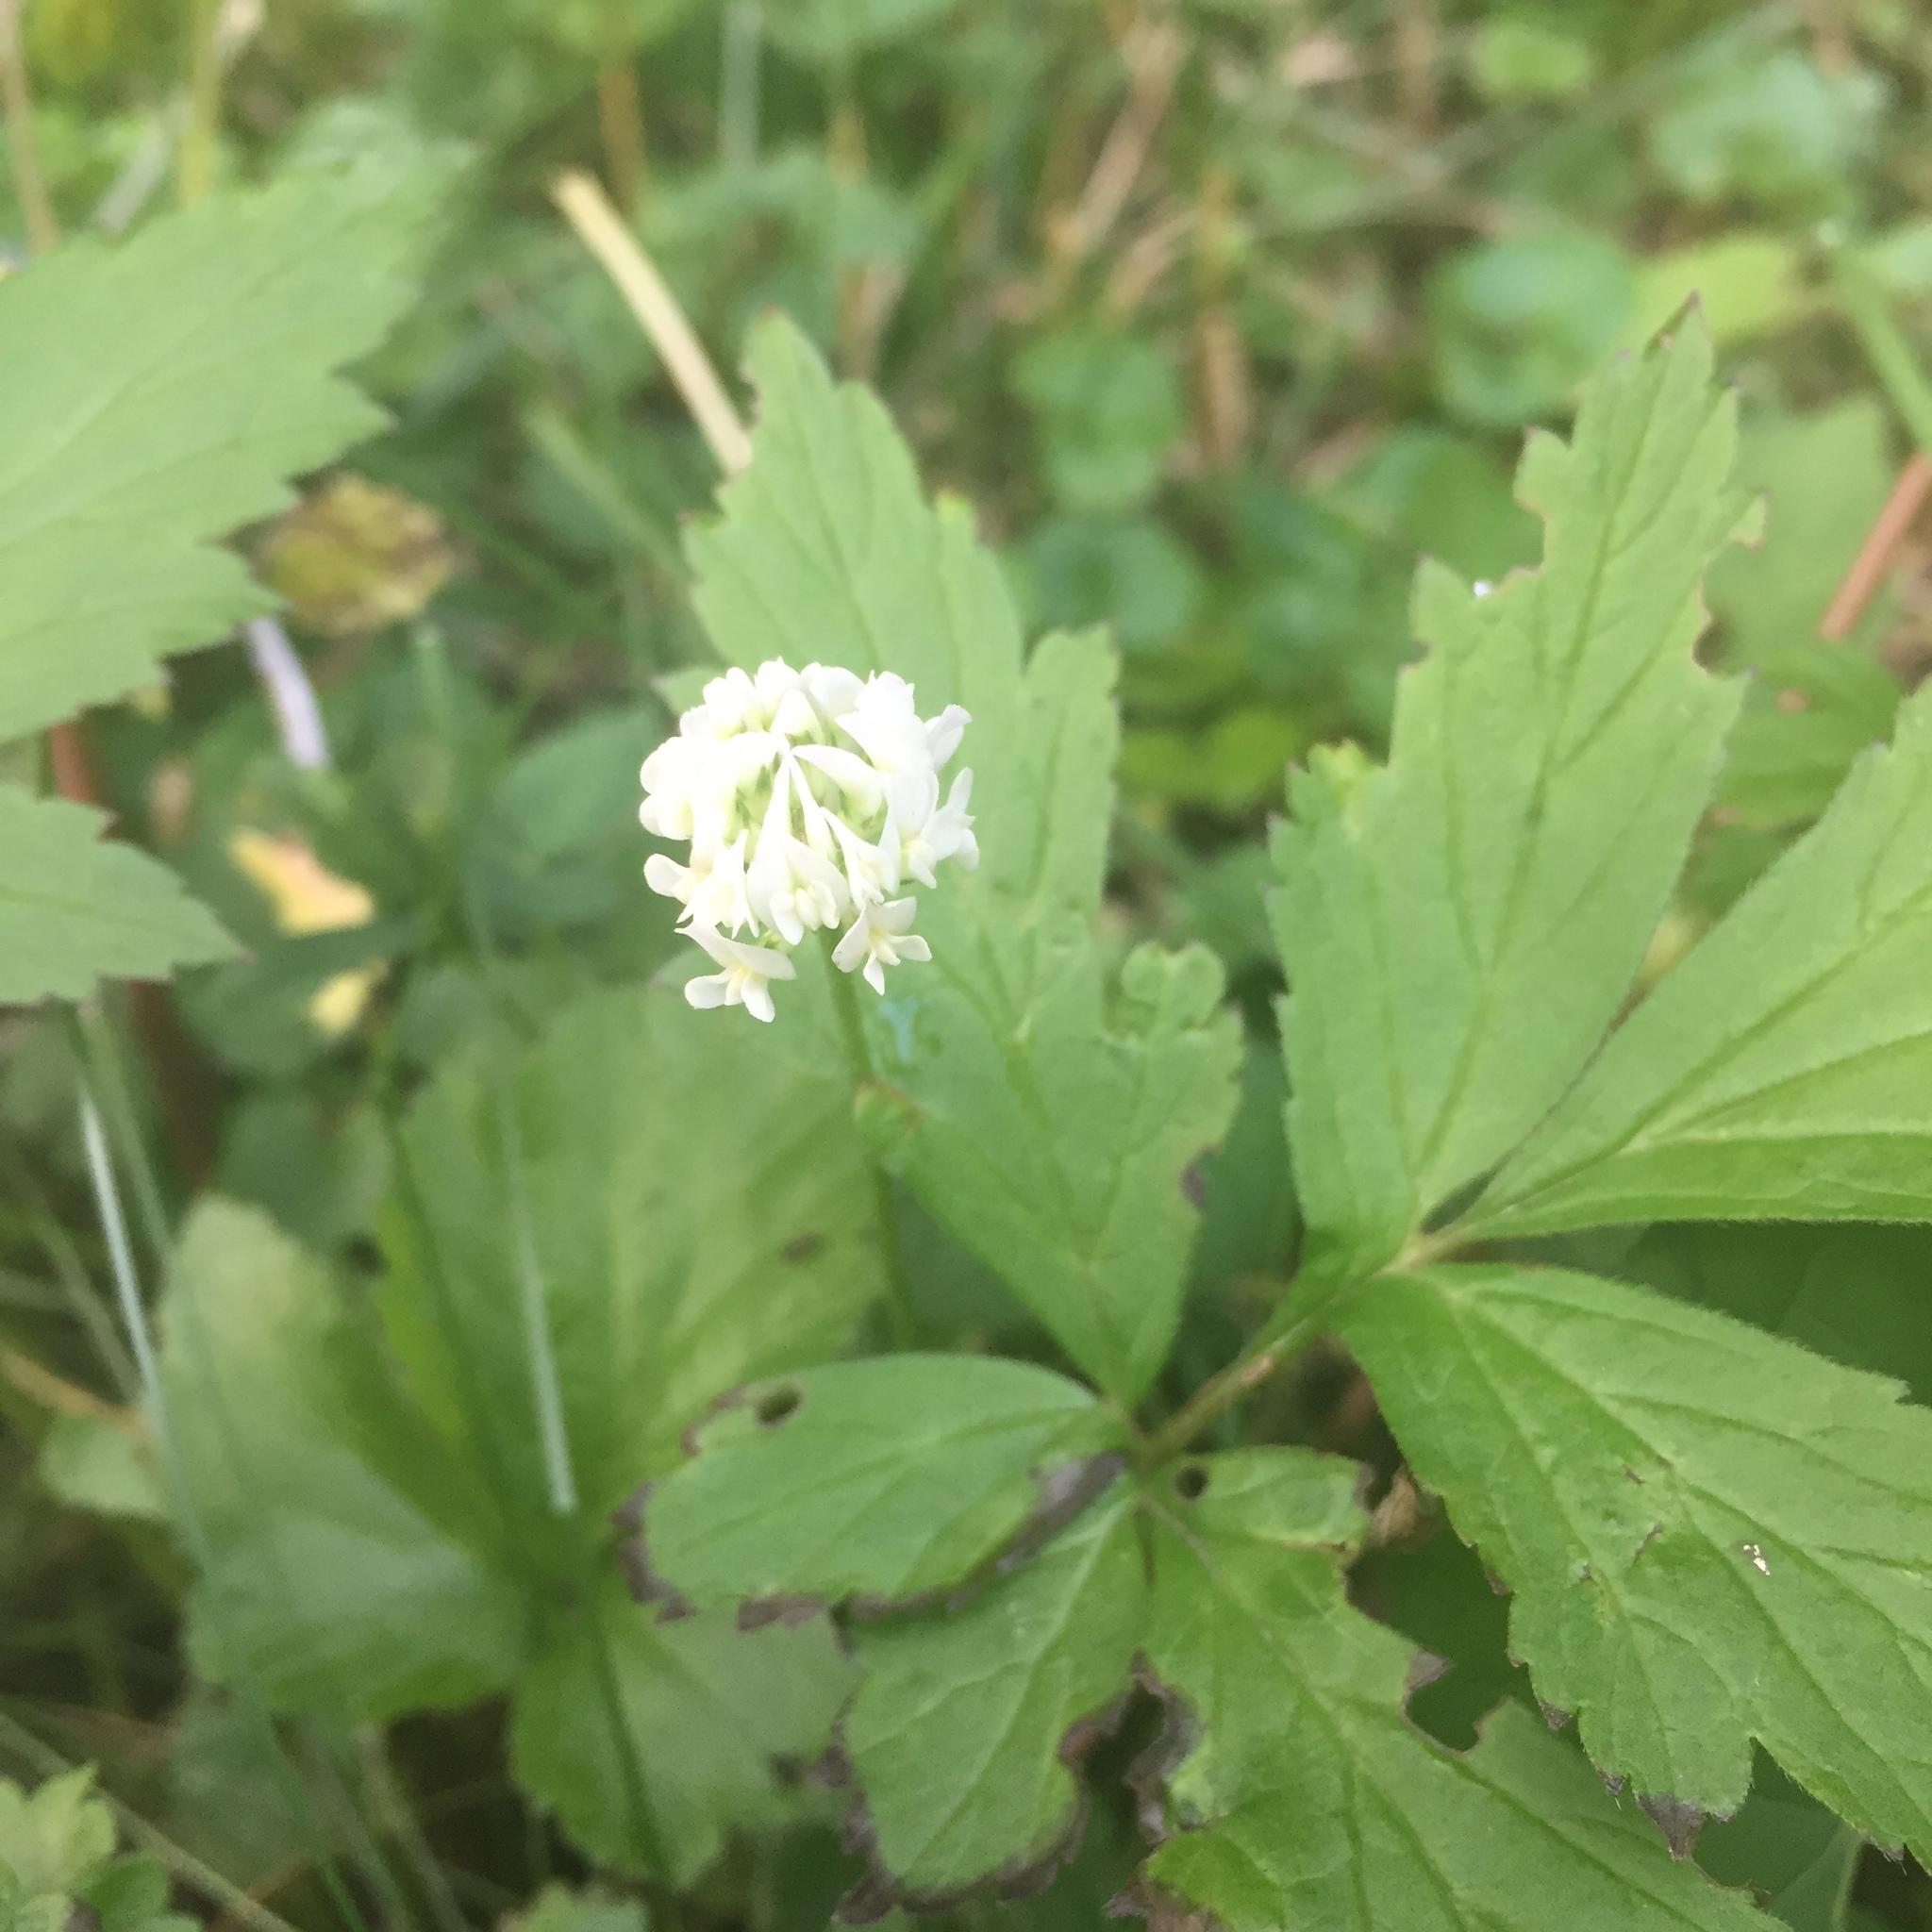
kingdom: Plantae
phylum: Tracheophyta
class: Magnoliopsida
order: Fabales
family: Fabaceae
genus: Trifolium
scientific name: Trifolium repens
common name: White clover
